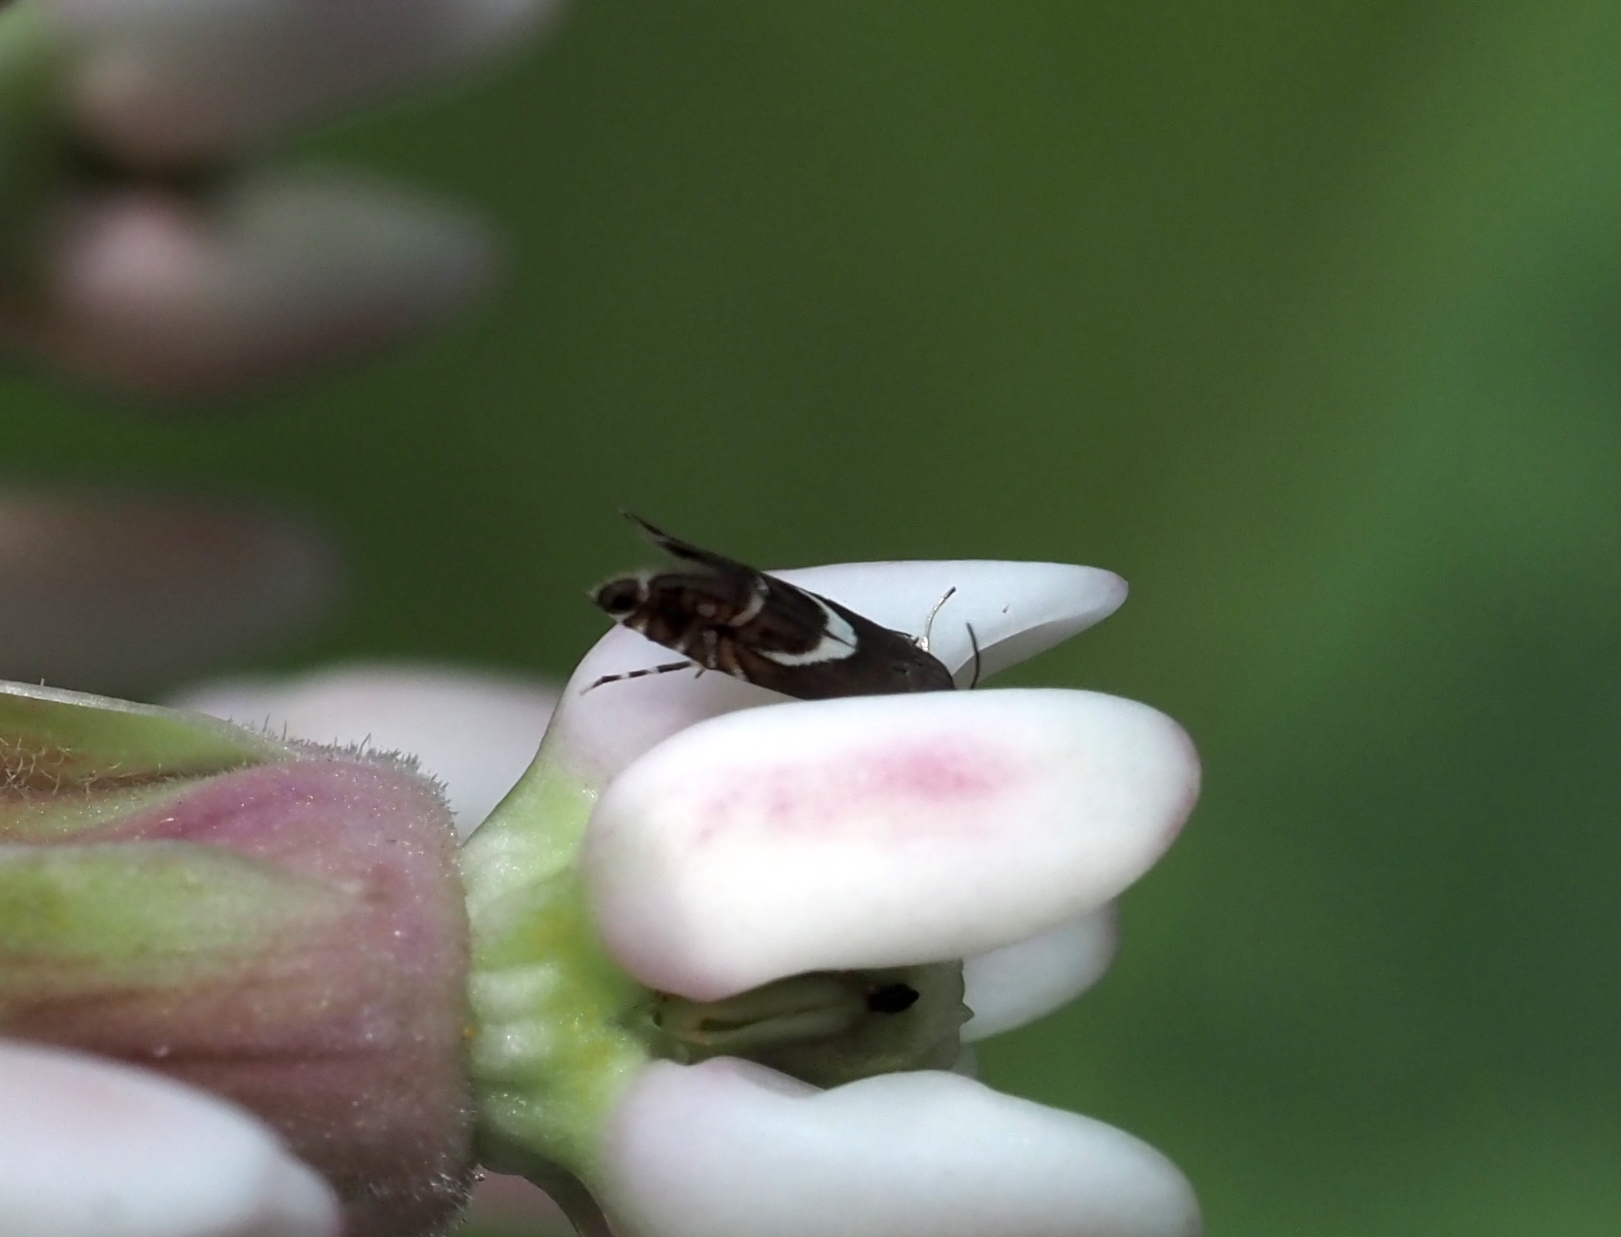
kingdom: Animalia
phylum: Arthropoda
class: Insecta
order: Lepidoptera
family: Glyphipterigidae
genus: Glyphipterix
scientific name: Glyphipterix Diploschizia impigritella
